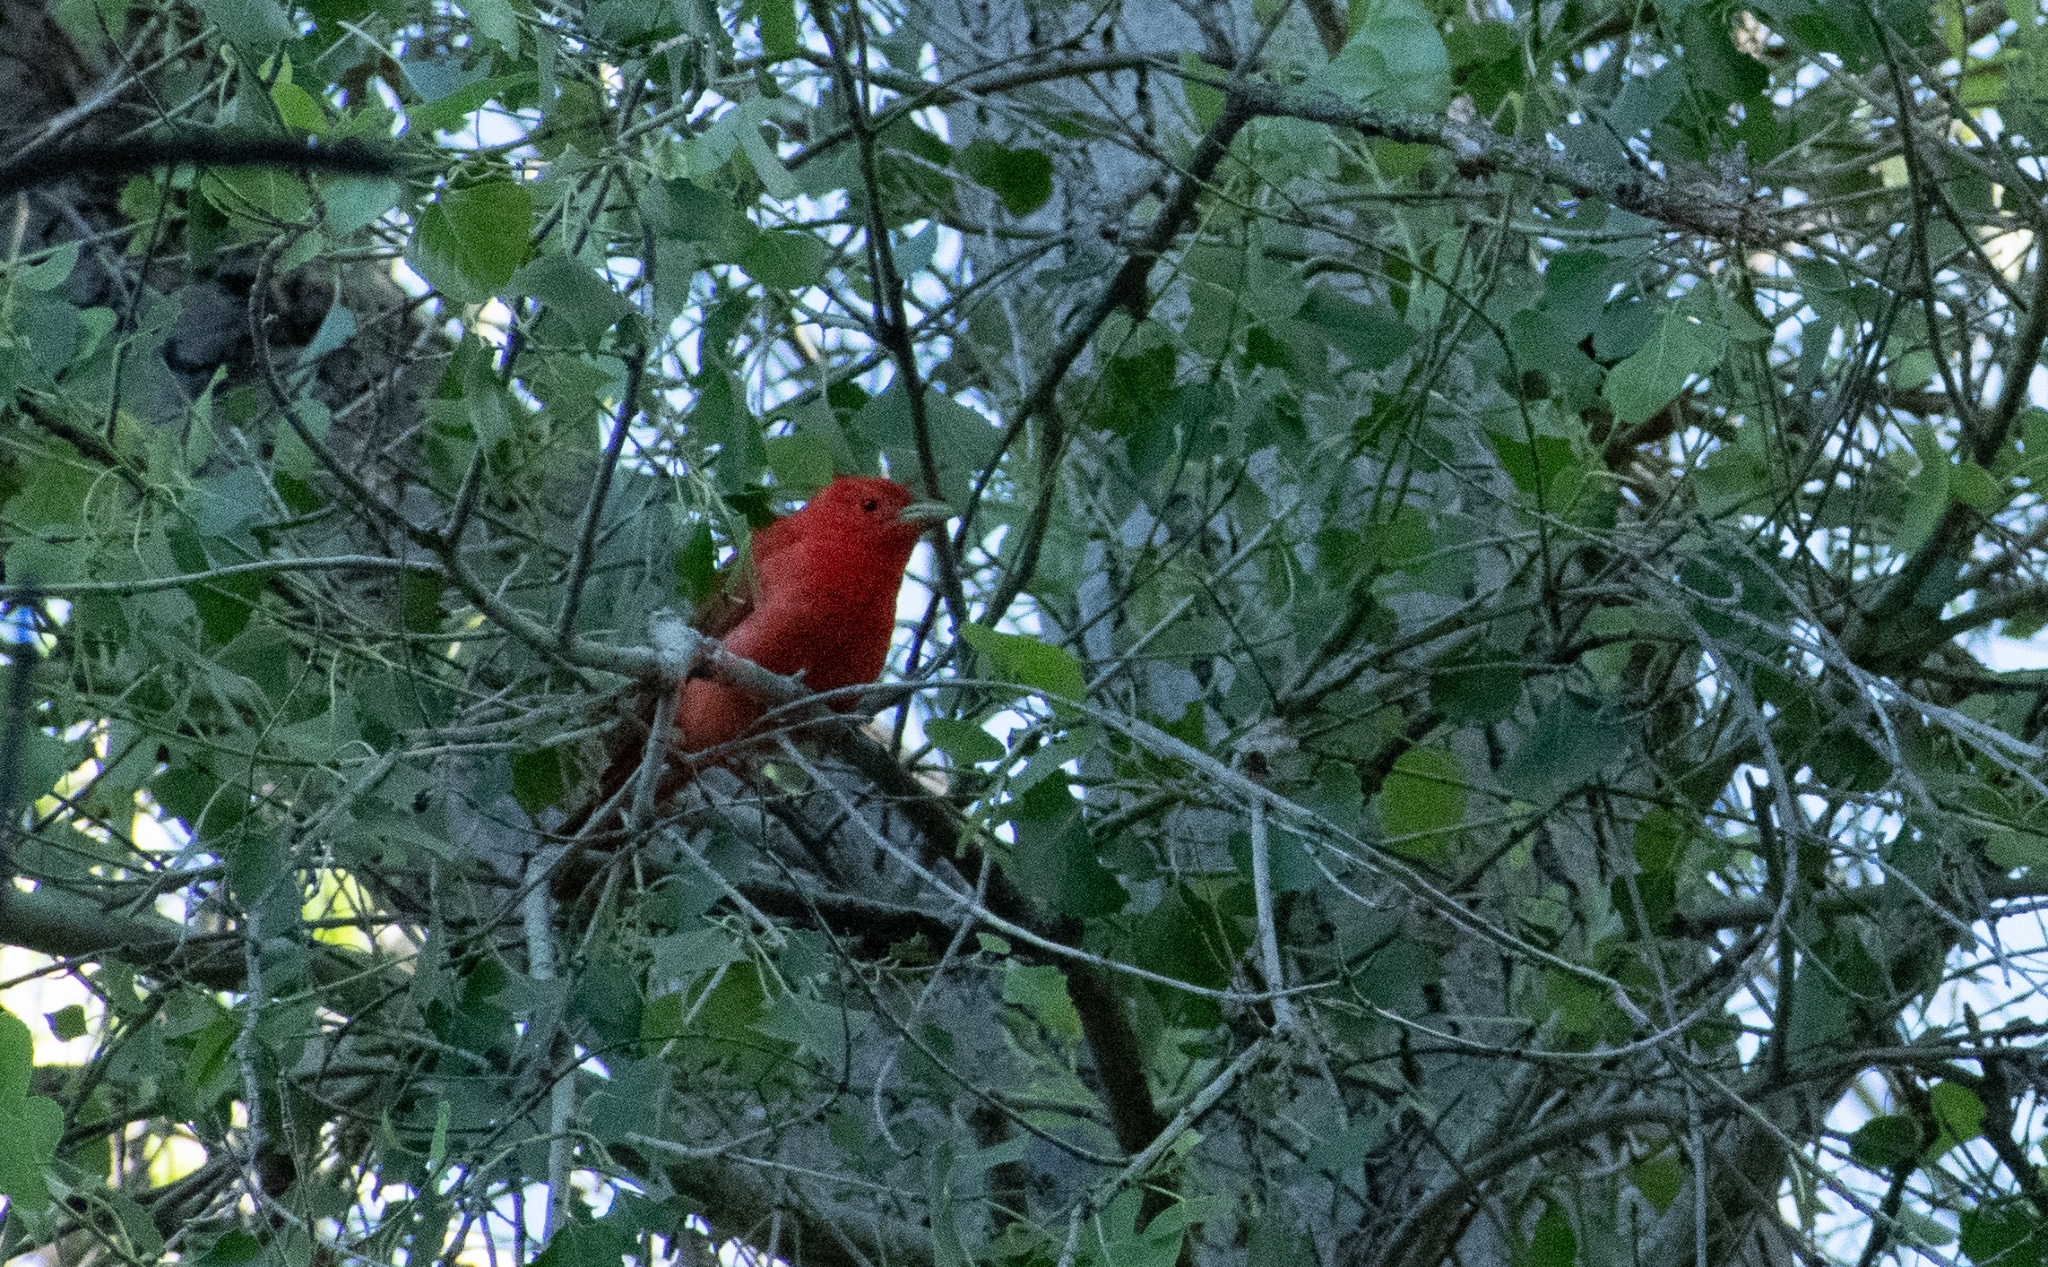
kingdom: Animalia
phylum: Chordata
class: Aves
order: Passeriformes
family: Cardinalidae
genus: Piranga
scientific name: Piranga rubra
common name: Summer tanager
